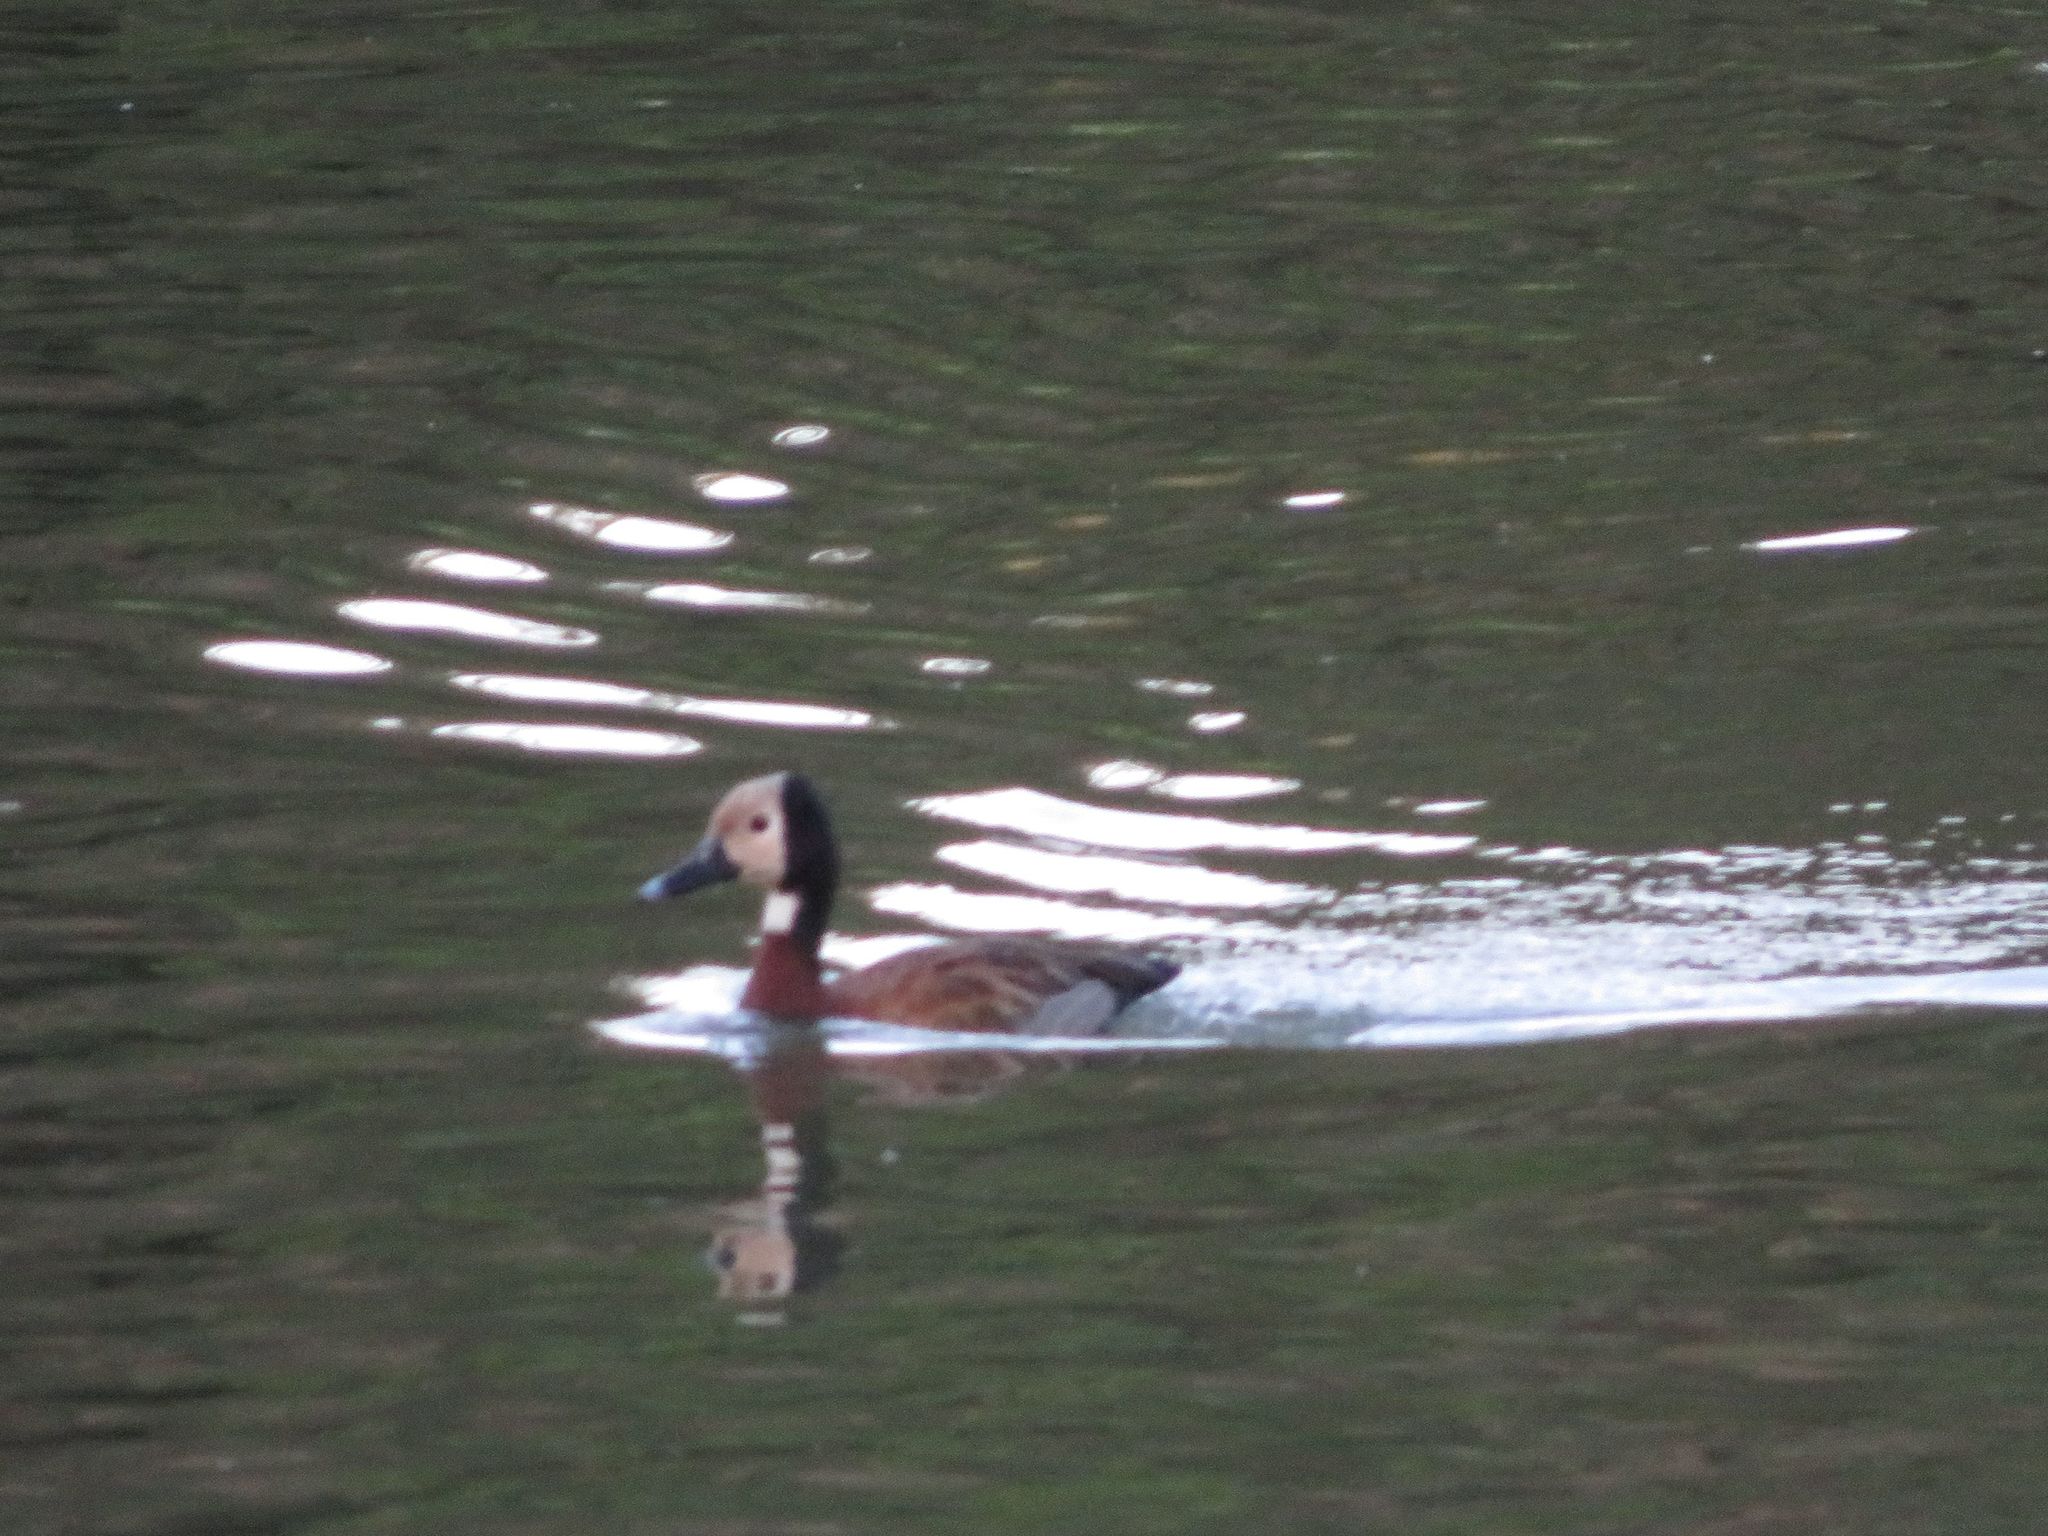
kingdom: Animalia
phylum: Chordata
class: Aves
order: Anseriformes
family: Anatidae
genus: Dendrocygna
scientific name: Dendrocygna viduata
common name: White-faced whistling duck
